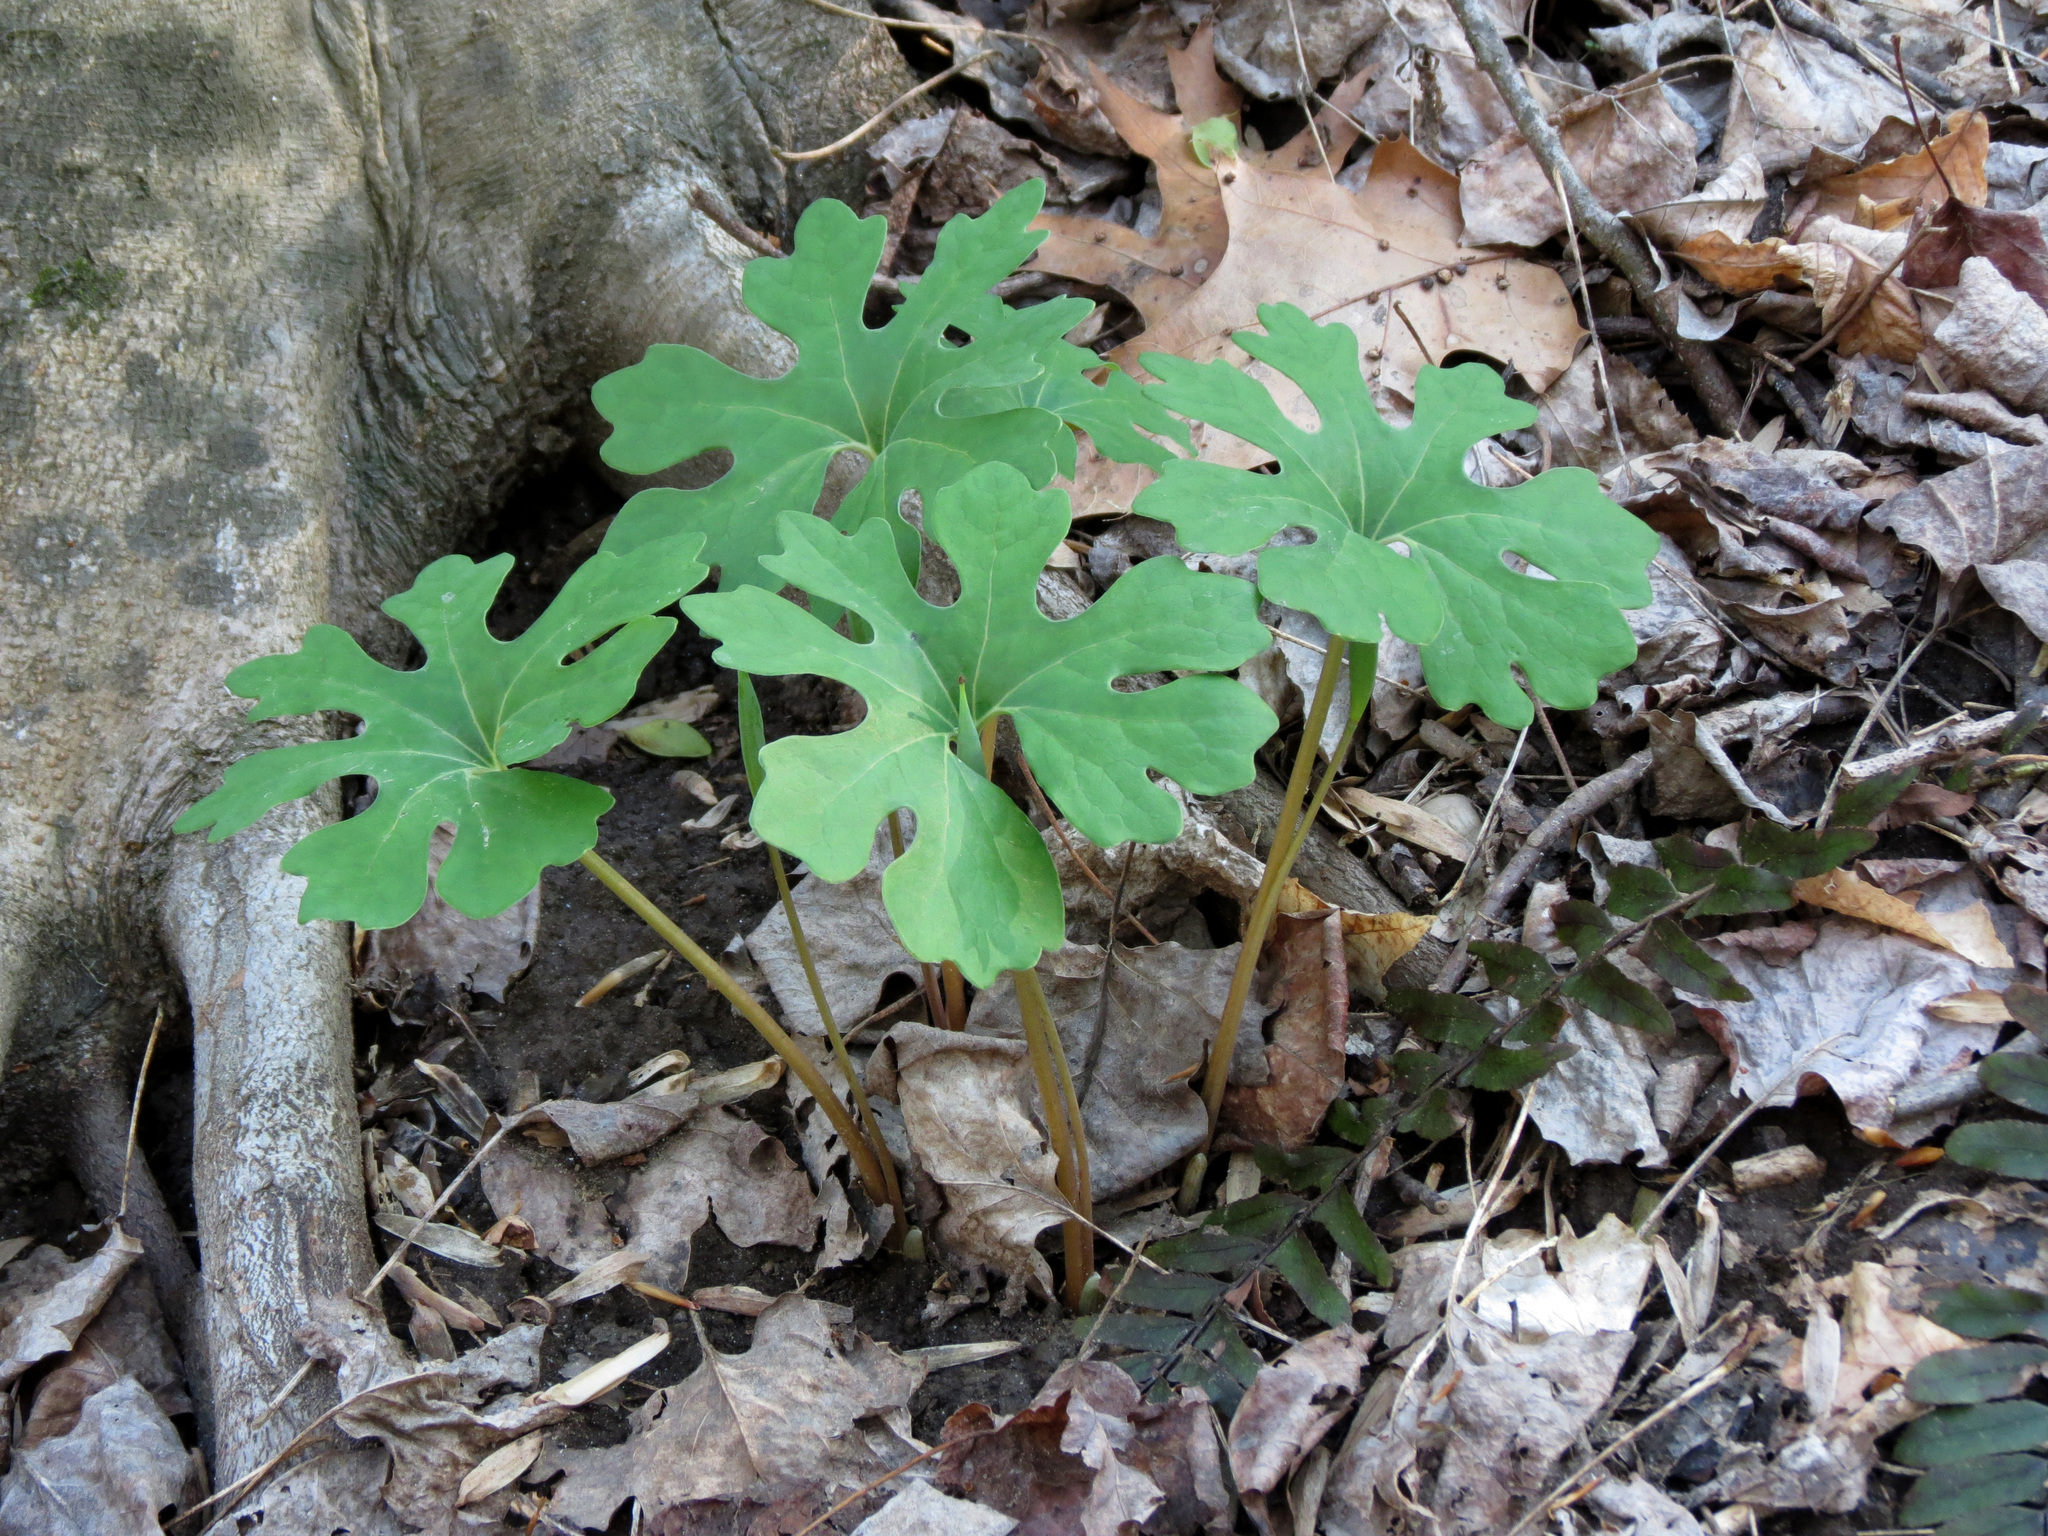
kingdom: Plantae
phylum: Tracheophyta
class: Magnoliopsida
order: Ranunculales
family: Papaveraceae
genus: Sanguinaria
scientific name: Sanguinaria canadensis
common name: Bloodroot
